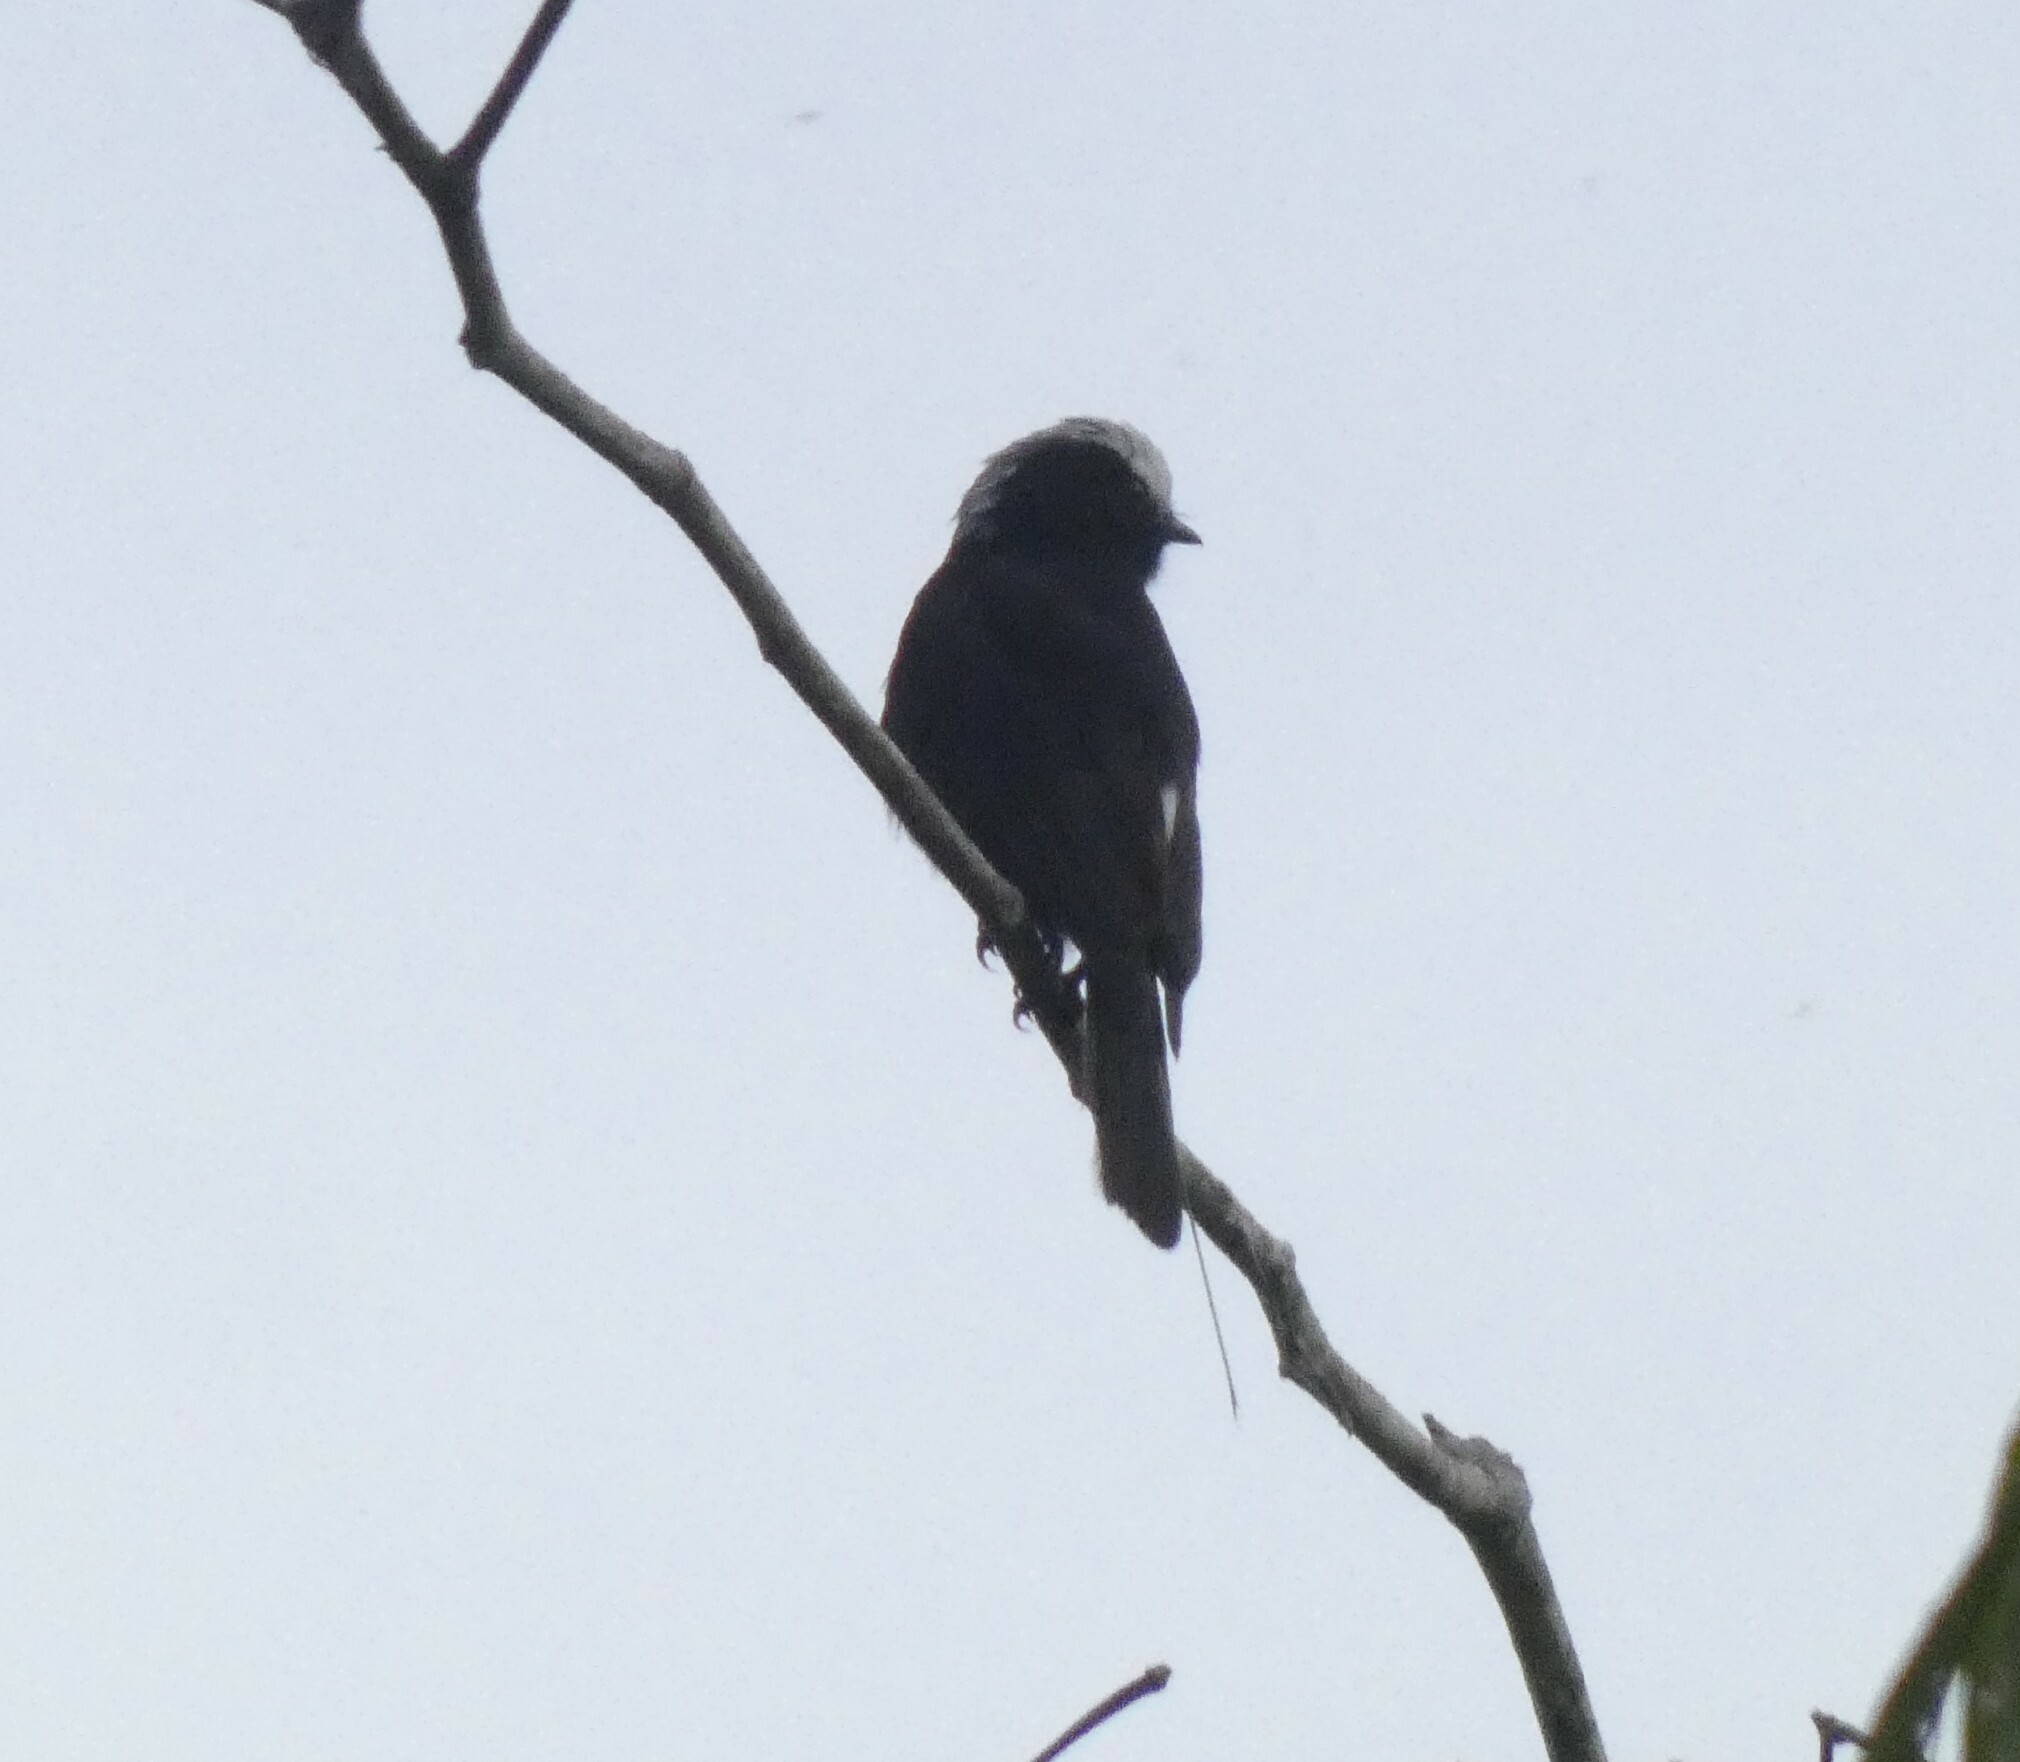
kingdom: Animalia
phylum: Chordata
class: Aves
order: Passeriformes
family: Tyrannidae
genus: Colonia
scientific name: Colonia colonus
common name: Long-tailed tyrant
